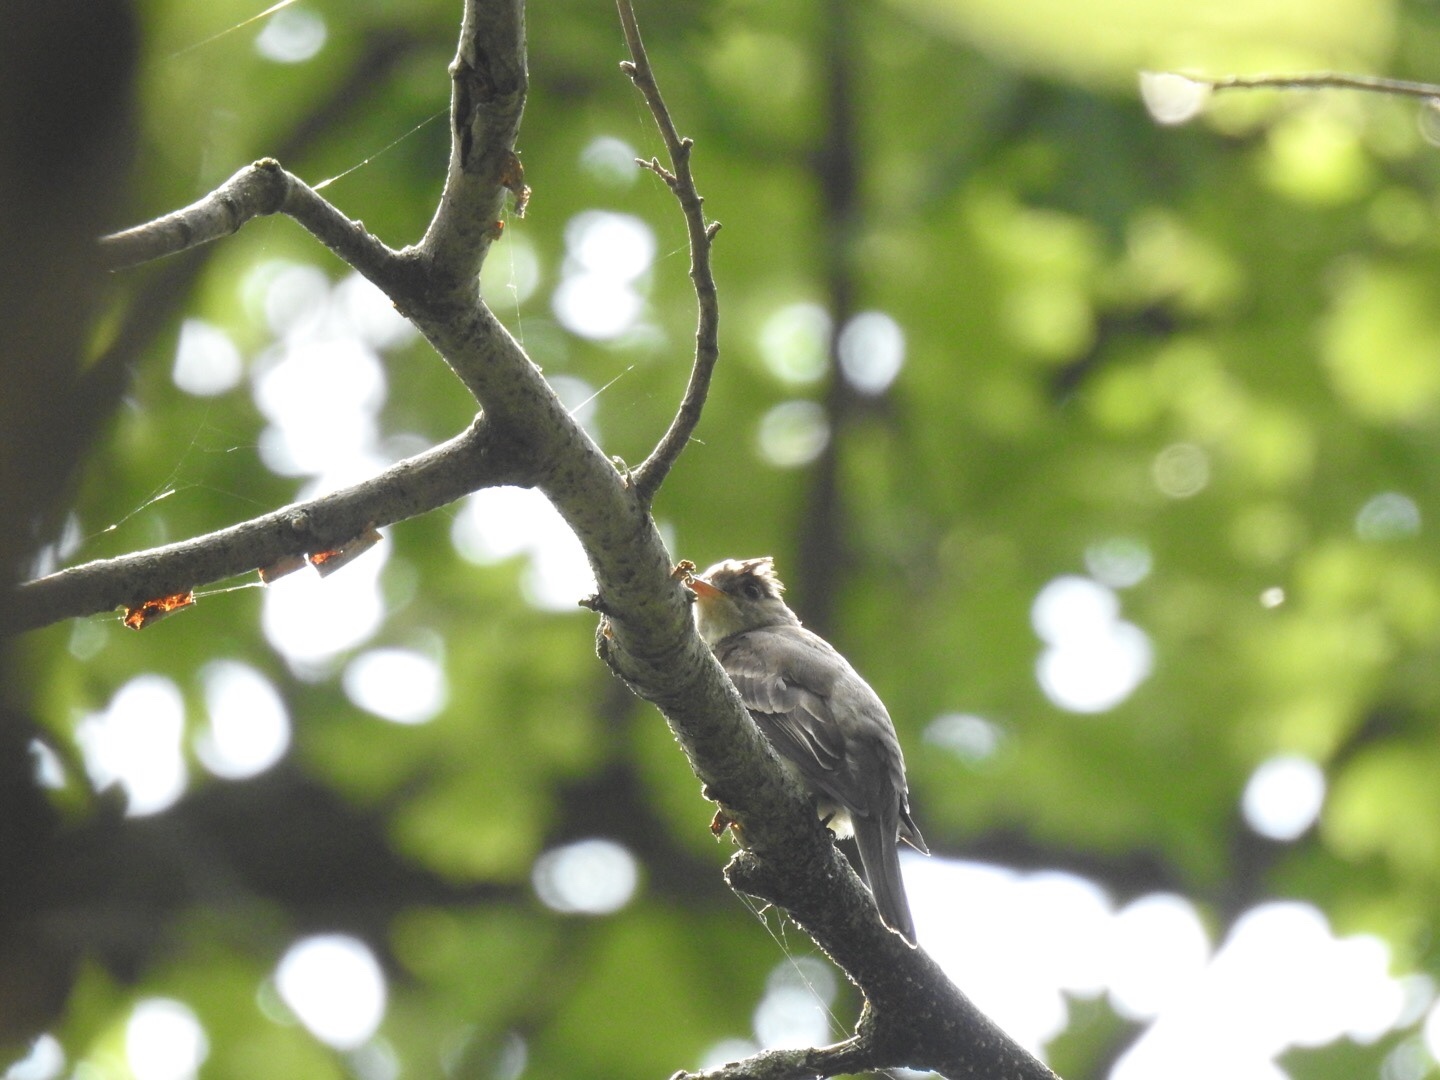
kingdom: Animalia
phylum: Chordata
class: Aves
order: Passeriformes
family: Tyrannidae
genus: Contopus
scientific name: Contopus virens
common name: Eastern wood-pewee
